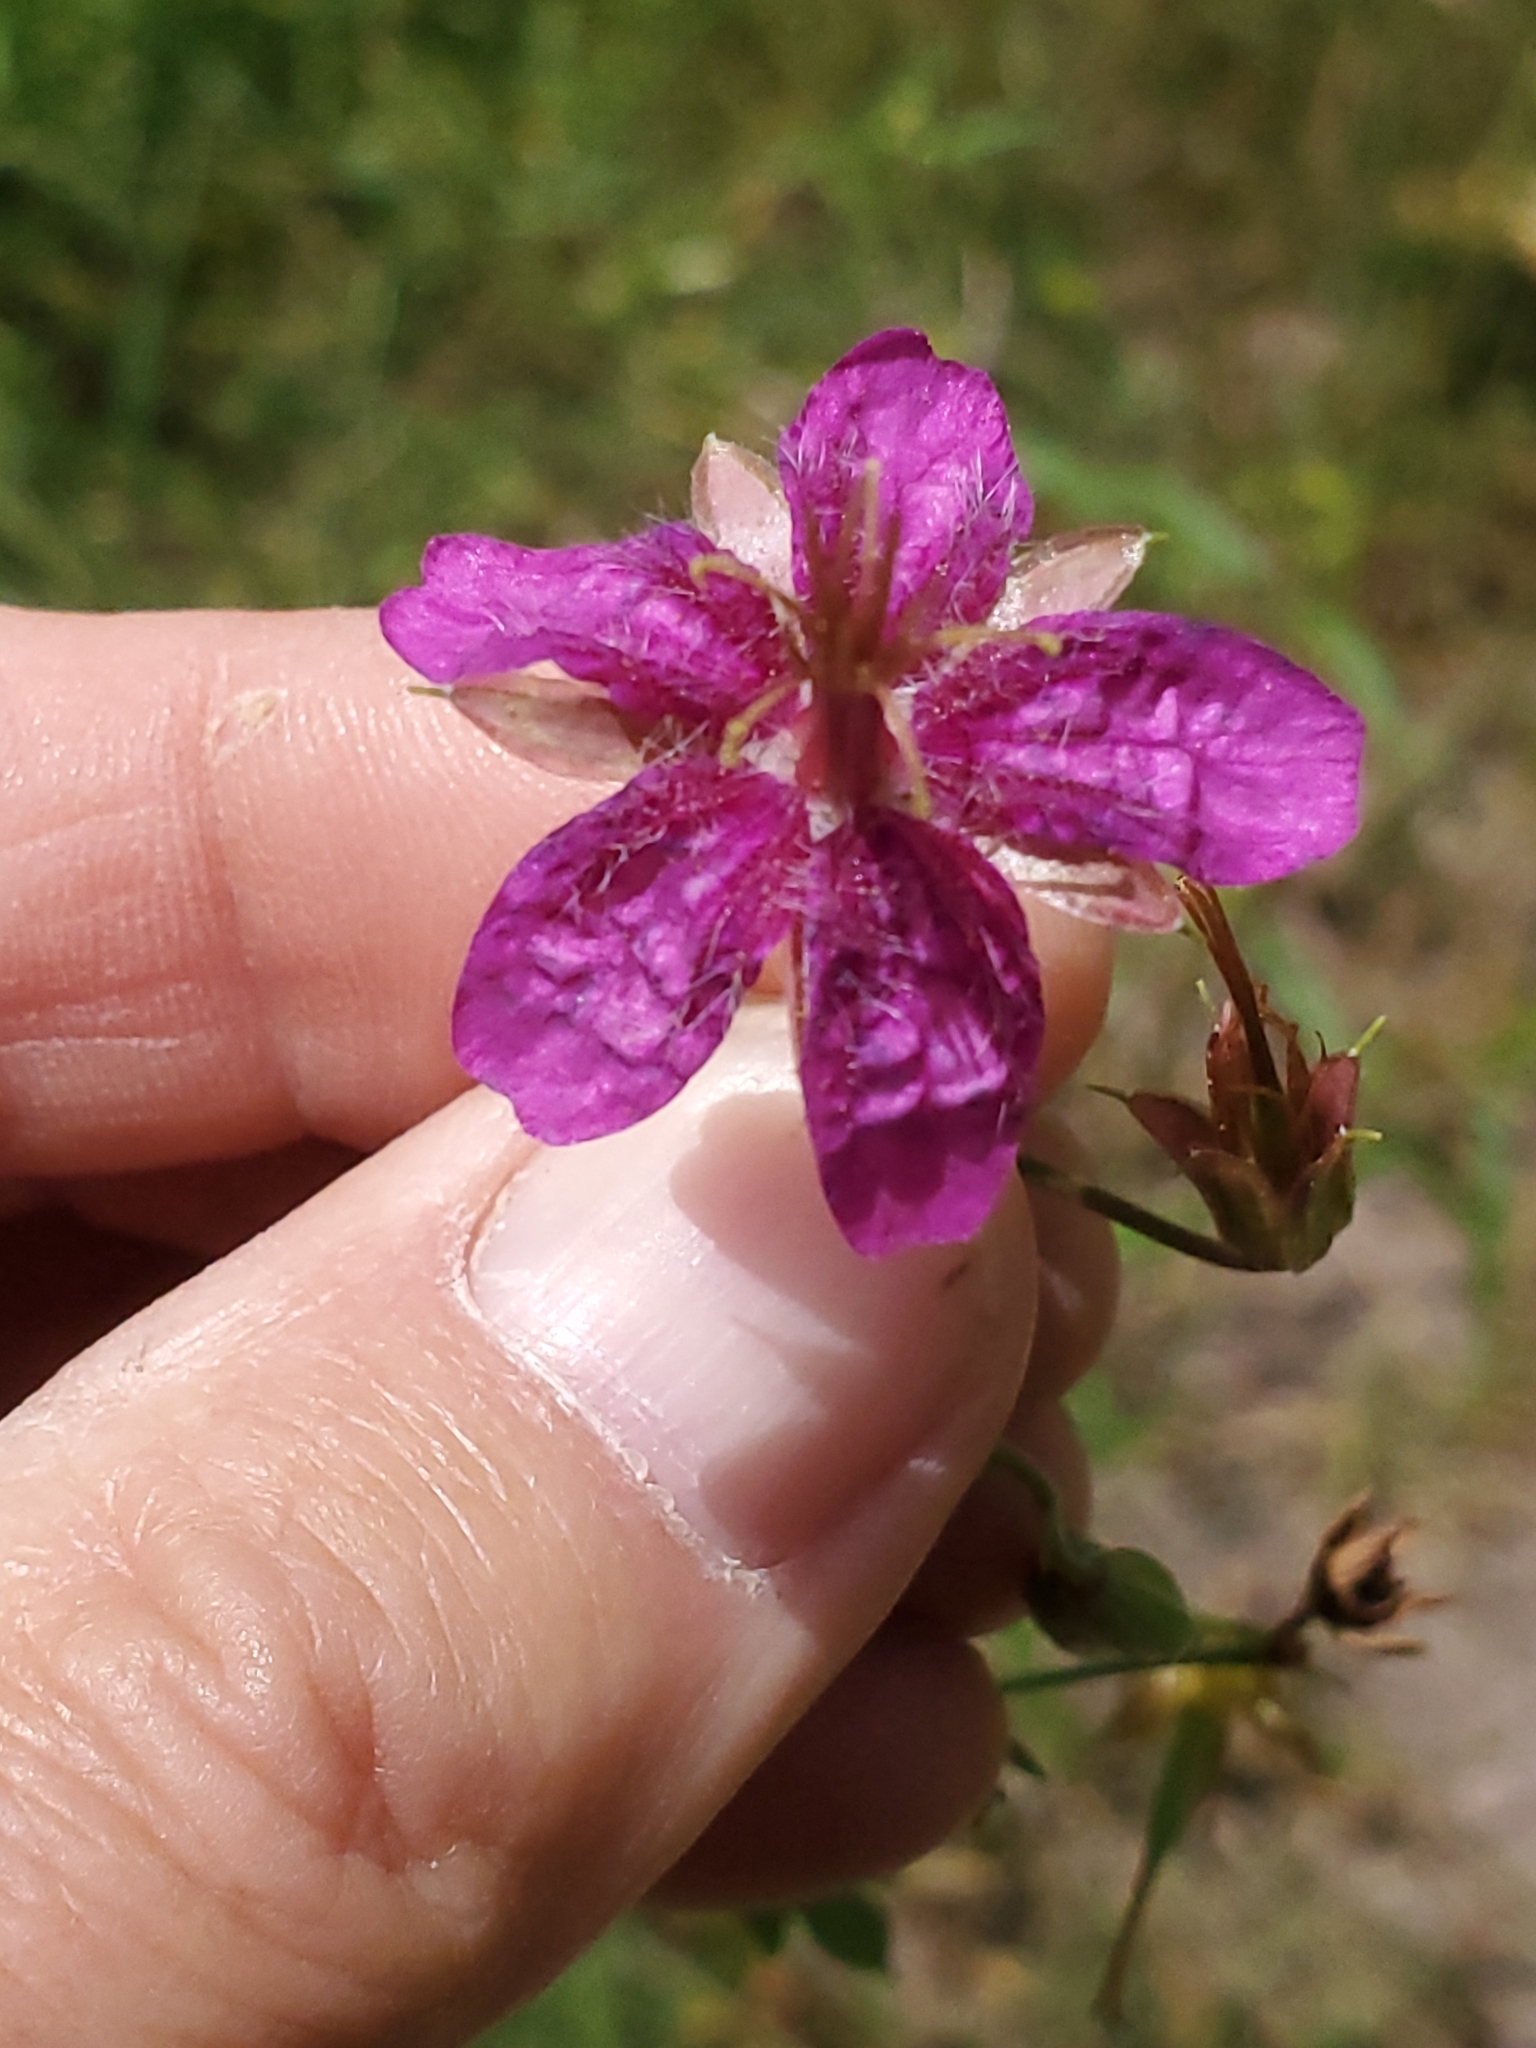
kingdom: Plantae
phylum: Tracheophyta
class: Magnoliopsida
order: Geraniales
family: Geraniaceae
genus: Geranium
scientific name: Geranium caespitosum
